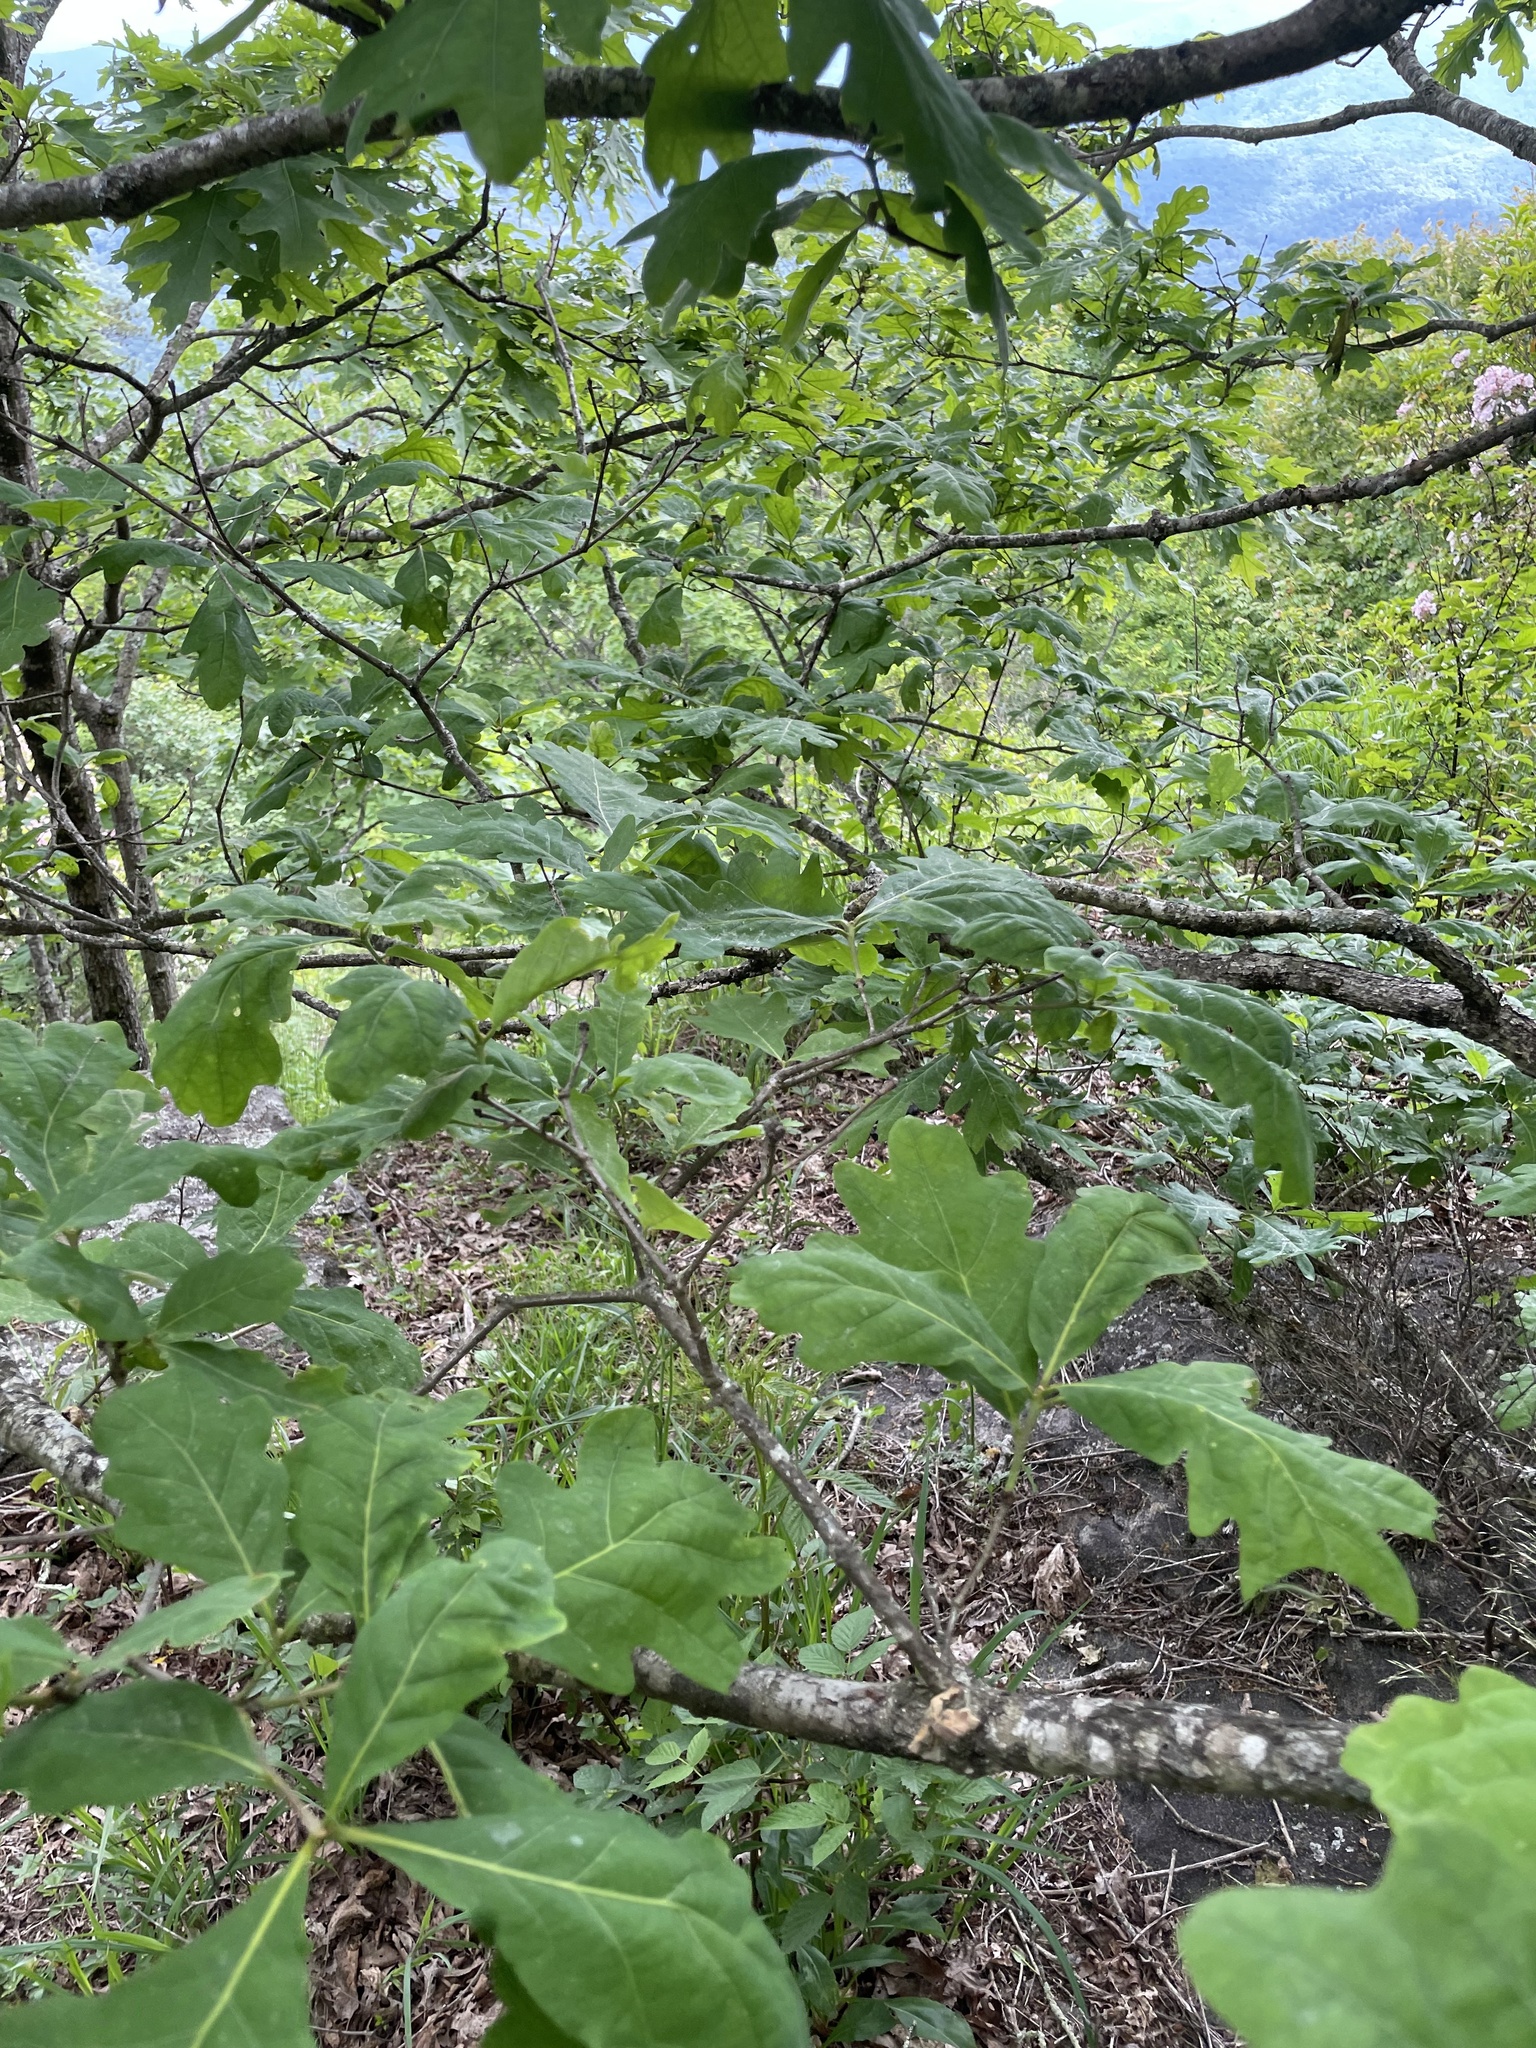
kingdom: Plantae
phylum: Tracheophyta
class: Magnoliopsida
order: Fagales
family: Fagaceae
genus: Quercus
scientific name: Quercus alba
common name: White oak
